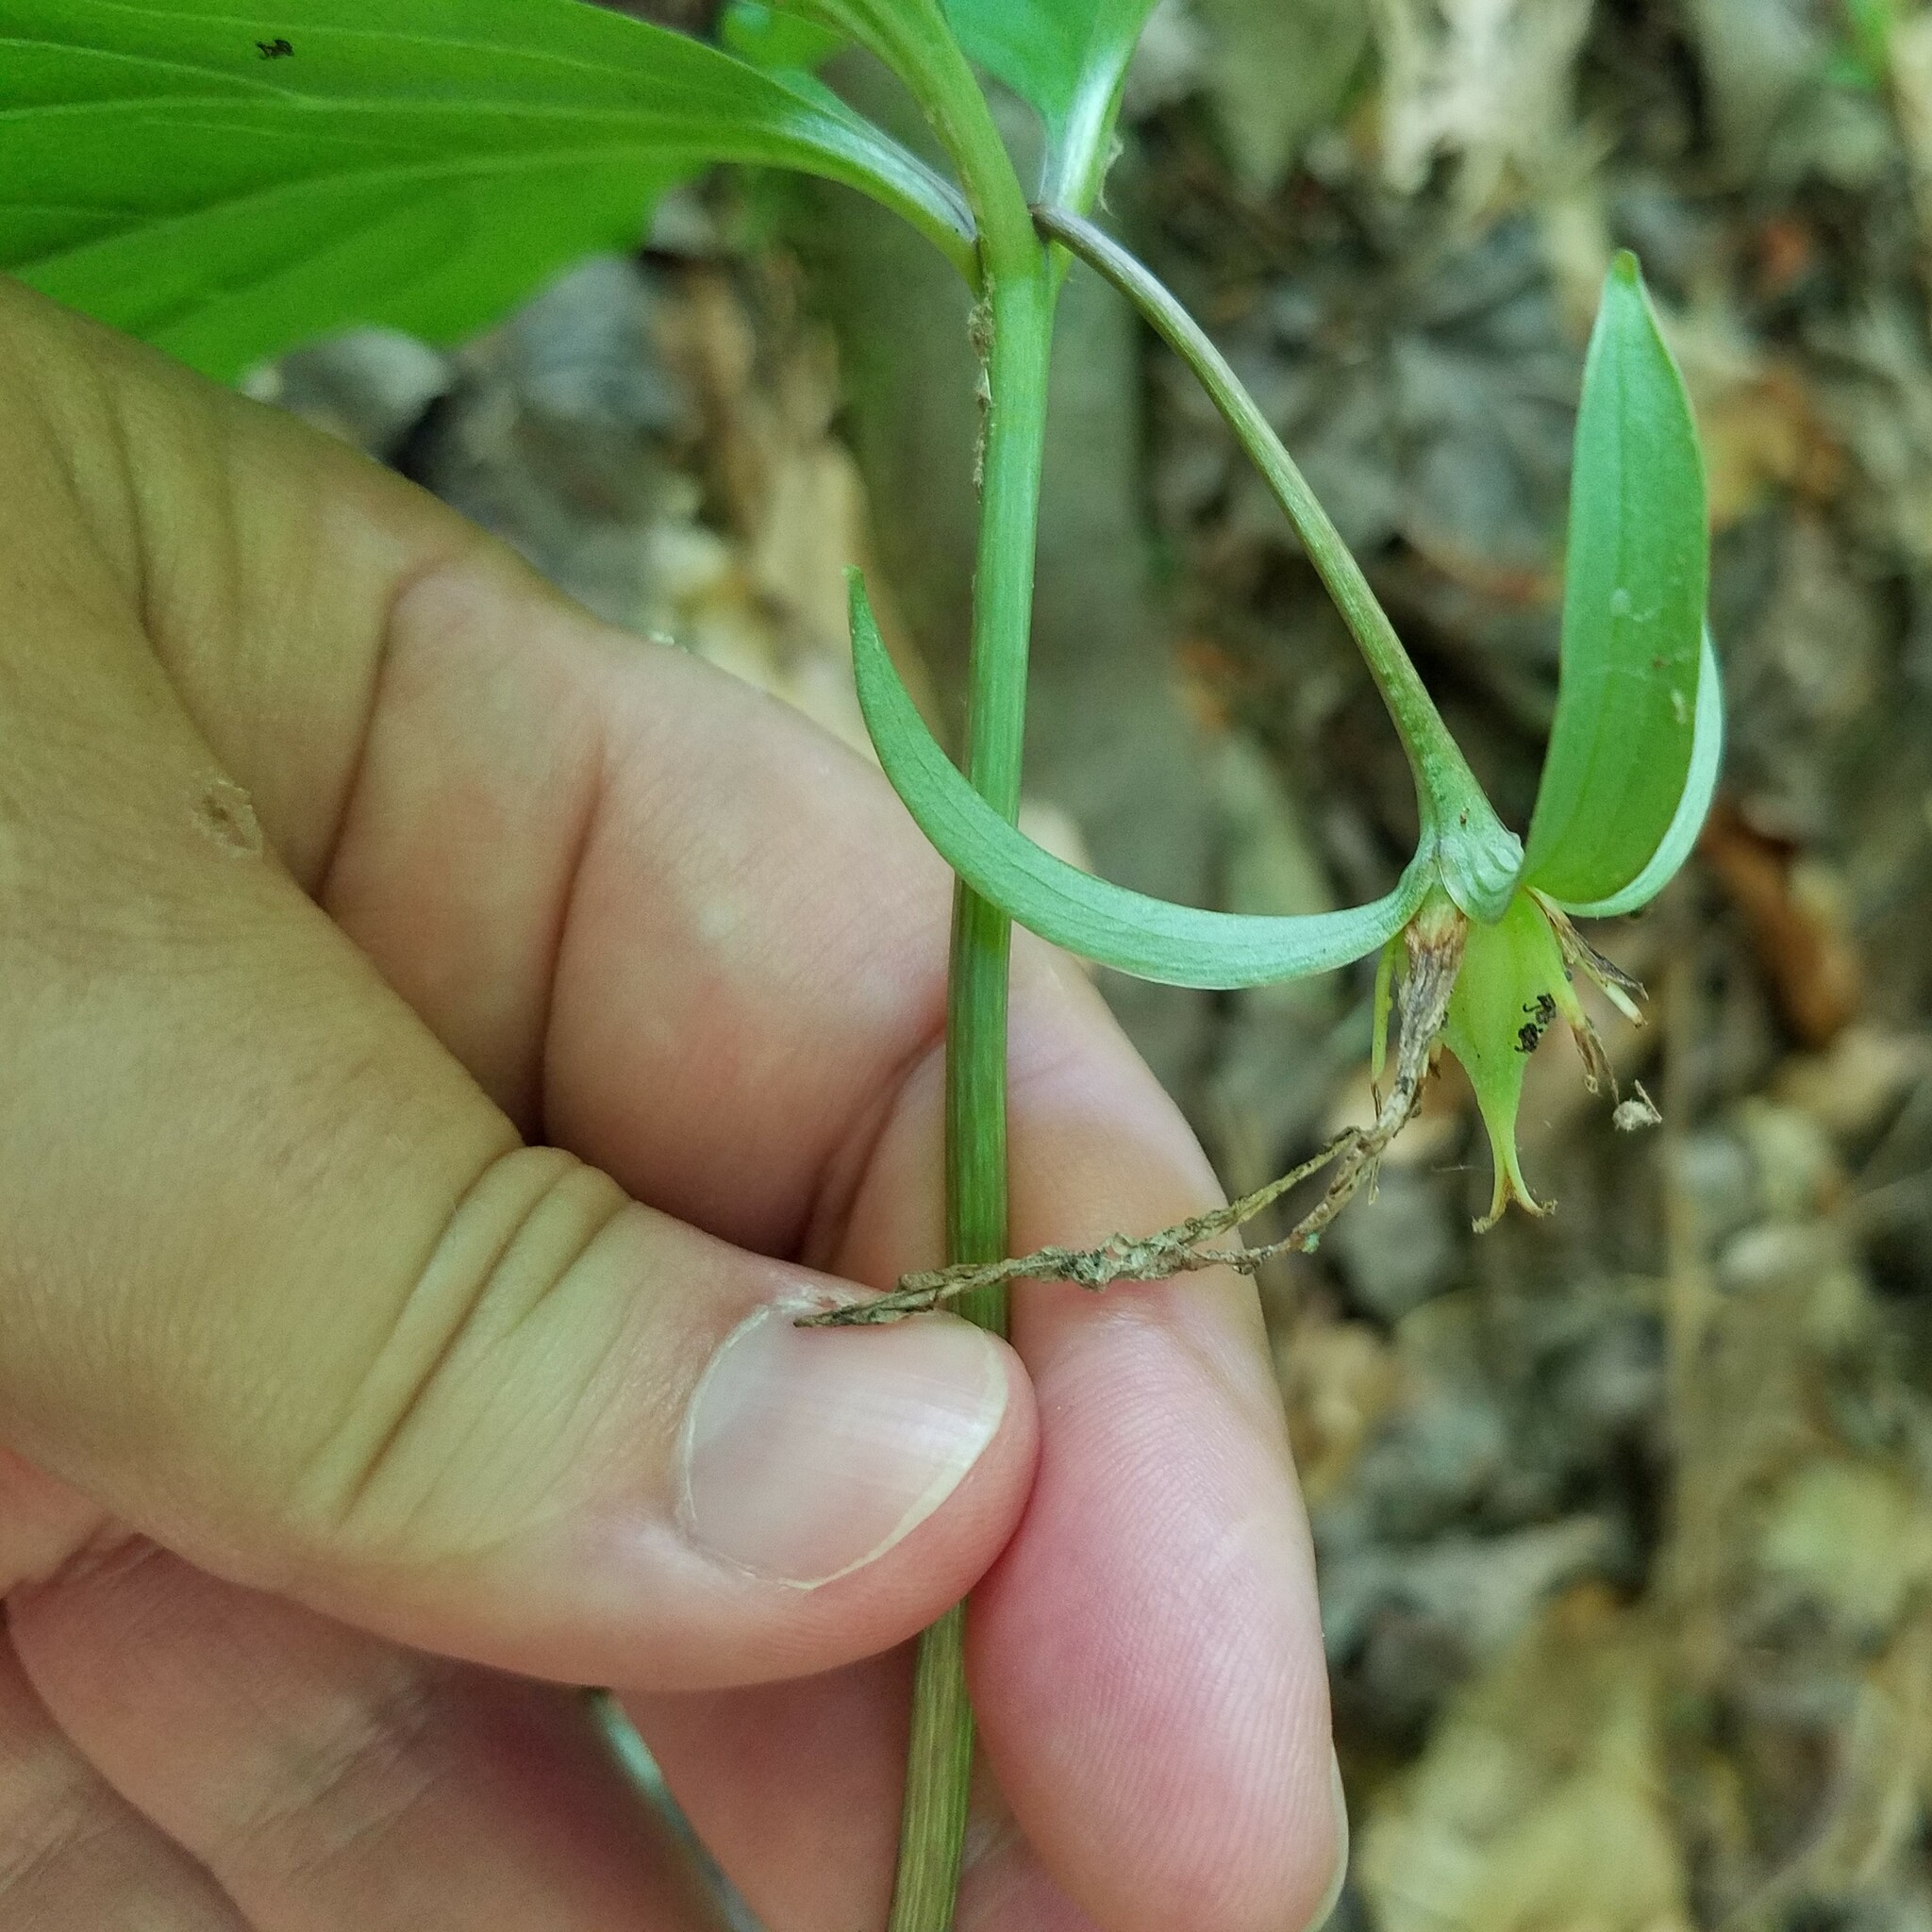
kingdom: Plantae
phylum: Tracheophyta
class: Liliopsida
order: Liliales
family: Melanthiaceae
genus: Trillium
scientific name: Trillium catesbaei
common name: Bashful trillium
